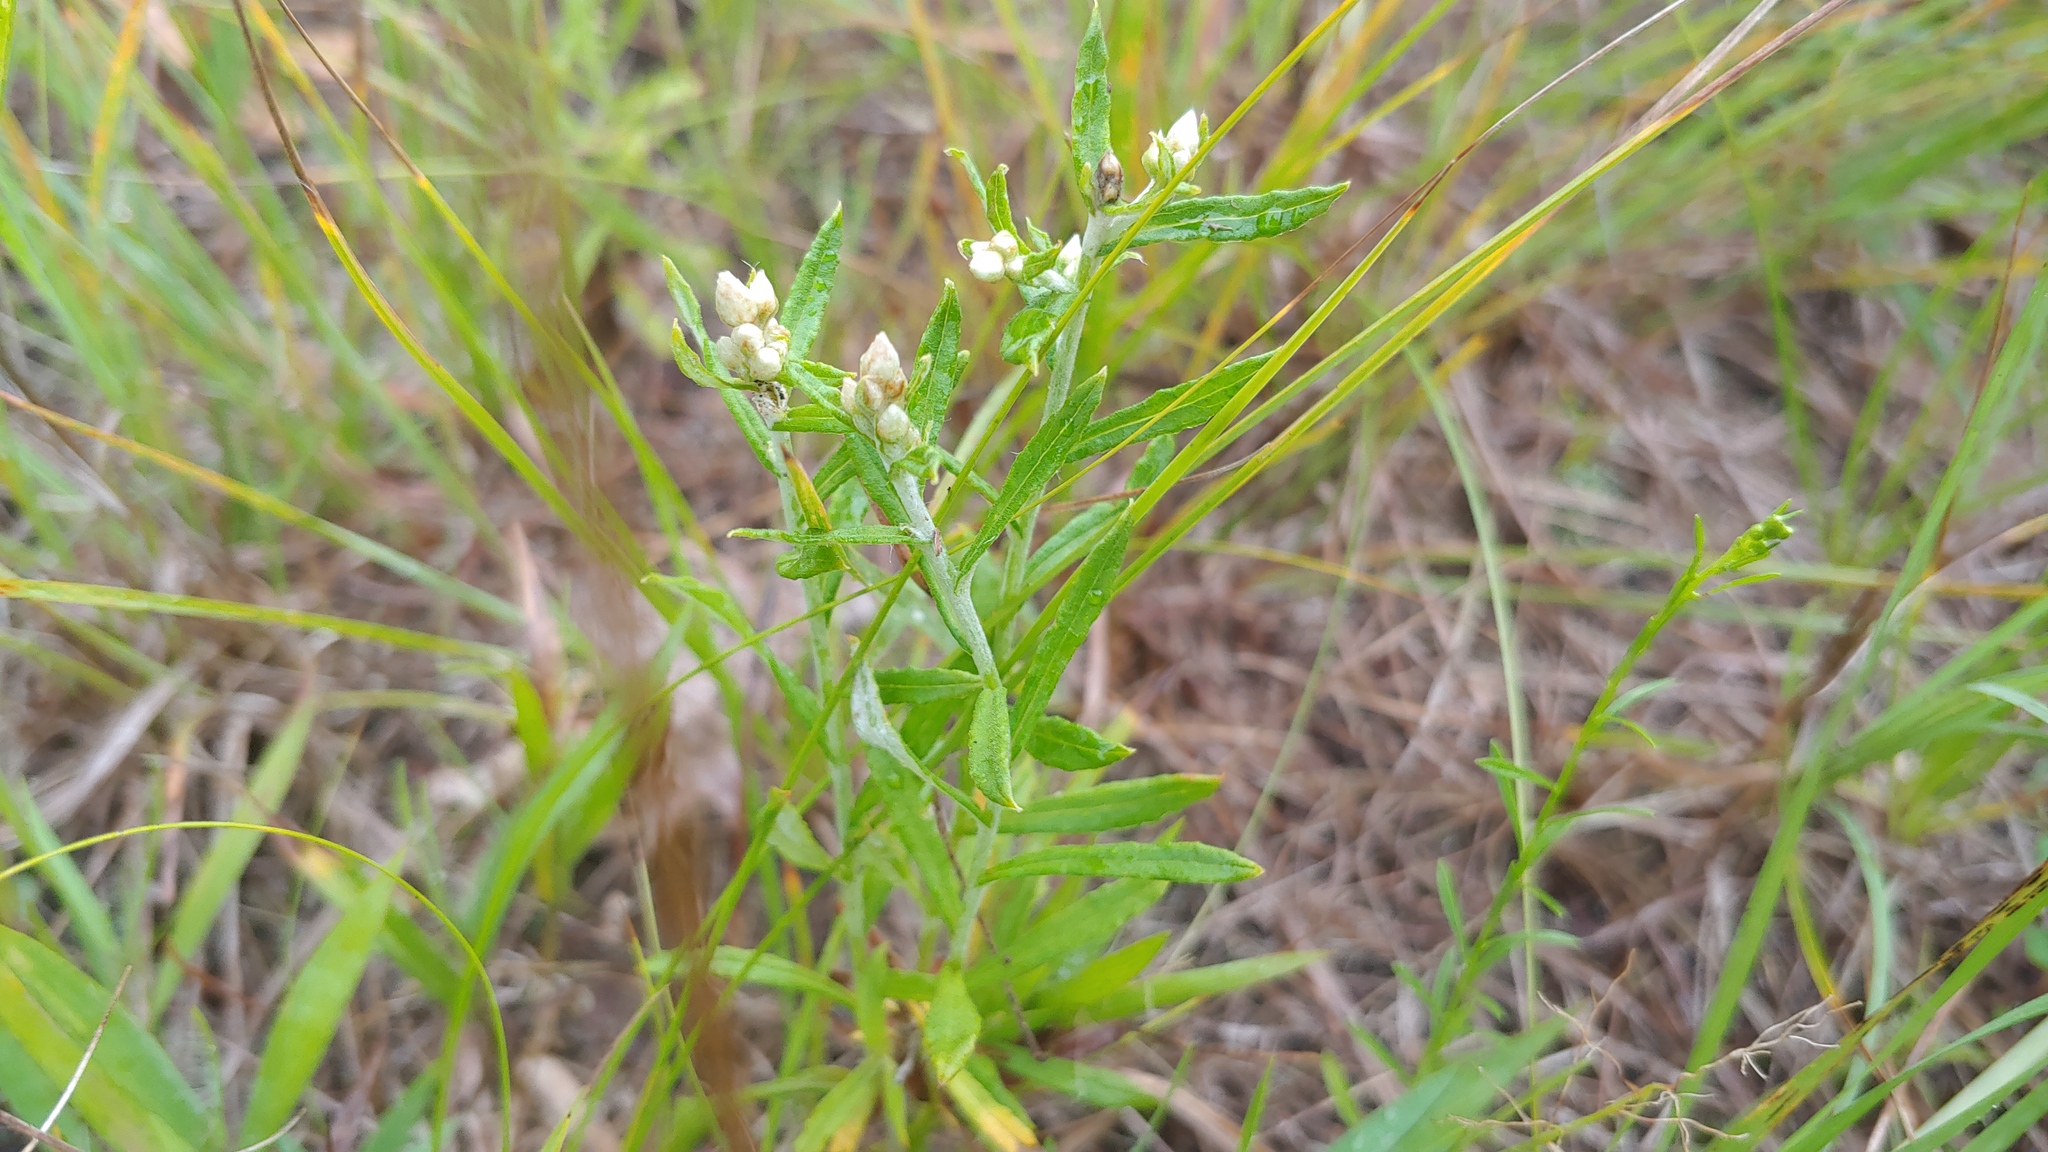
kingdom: Plantae
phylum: Tracheophyta
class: Magnoliopsida
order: Asterales
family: Asteraceae
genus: Pseudognaphalium
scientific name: Pseudognaphalium obtusifolium
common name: Eastern rabbit-tobacco
